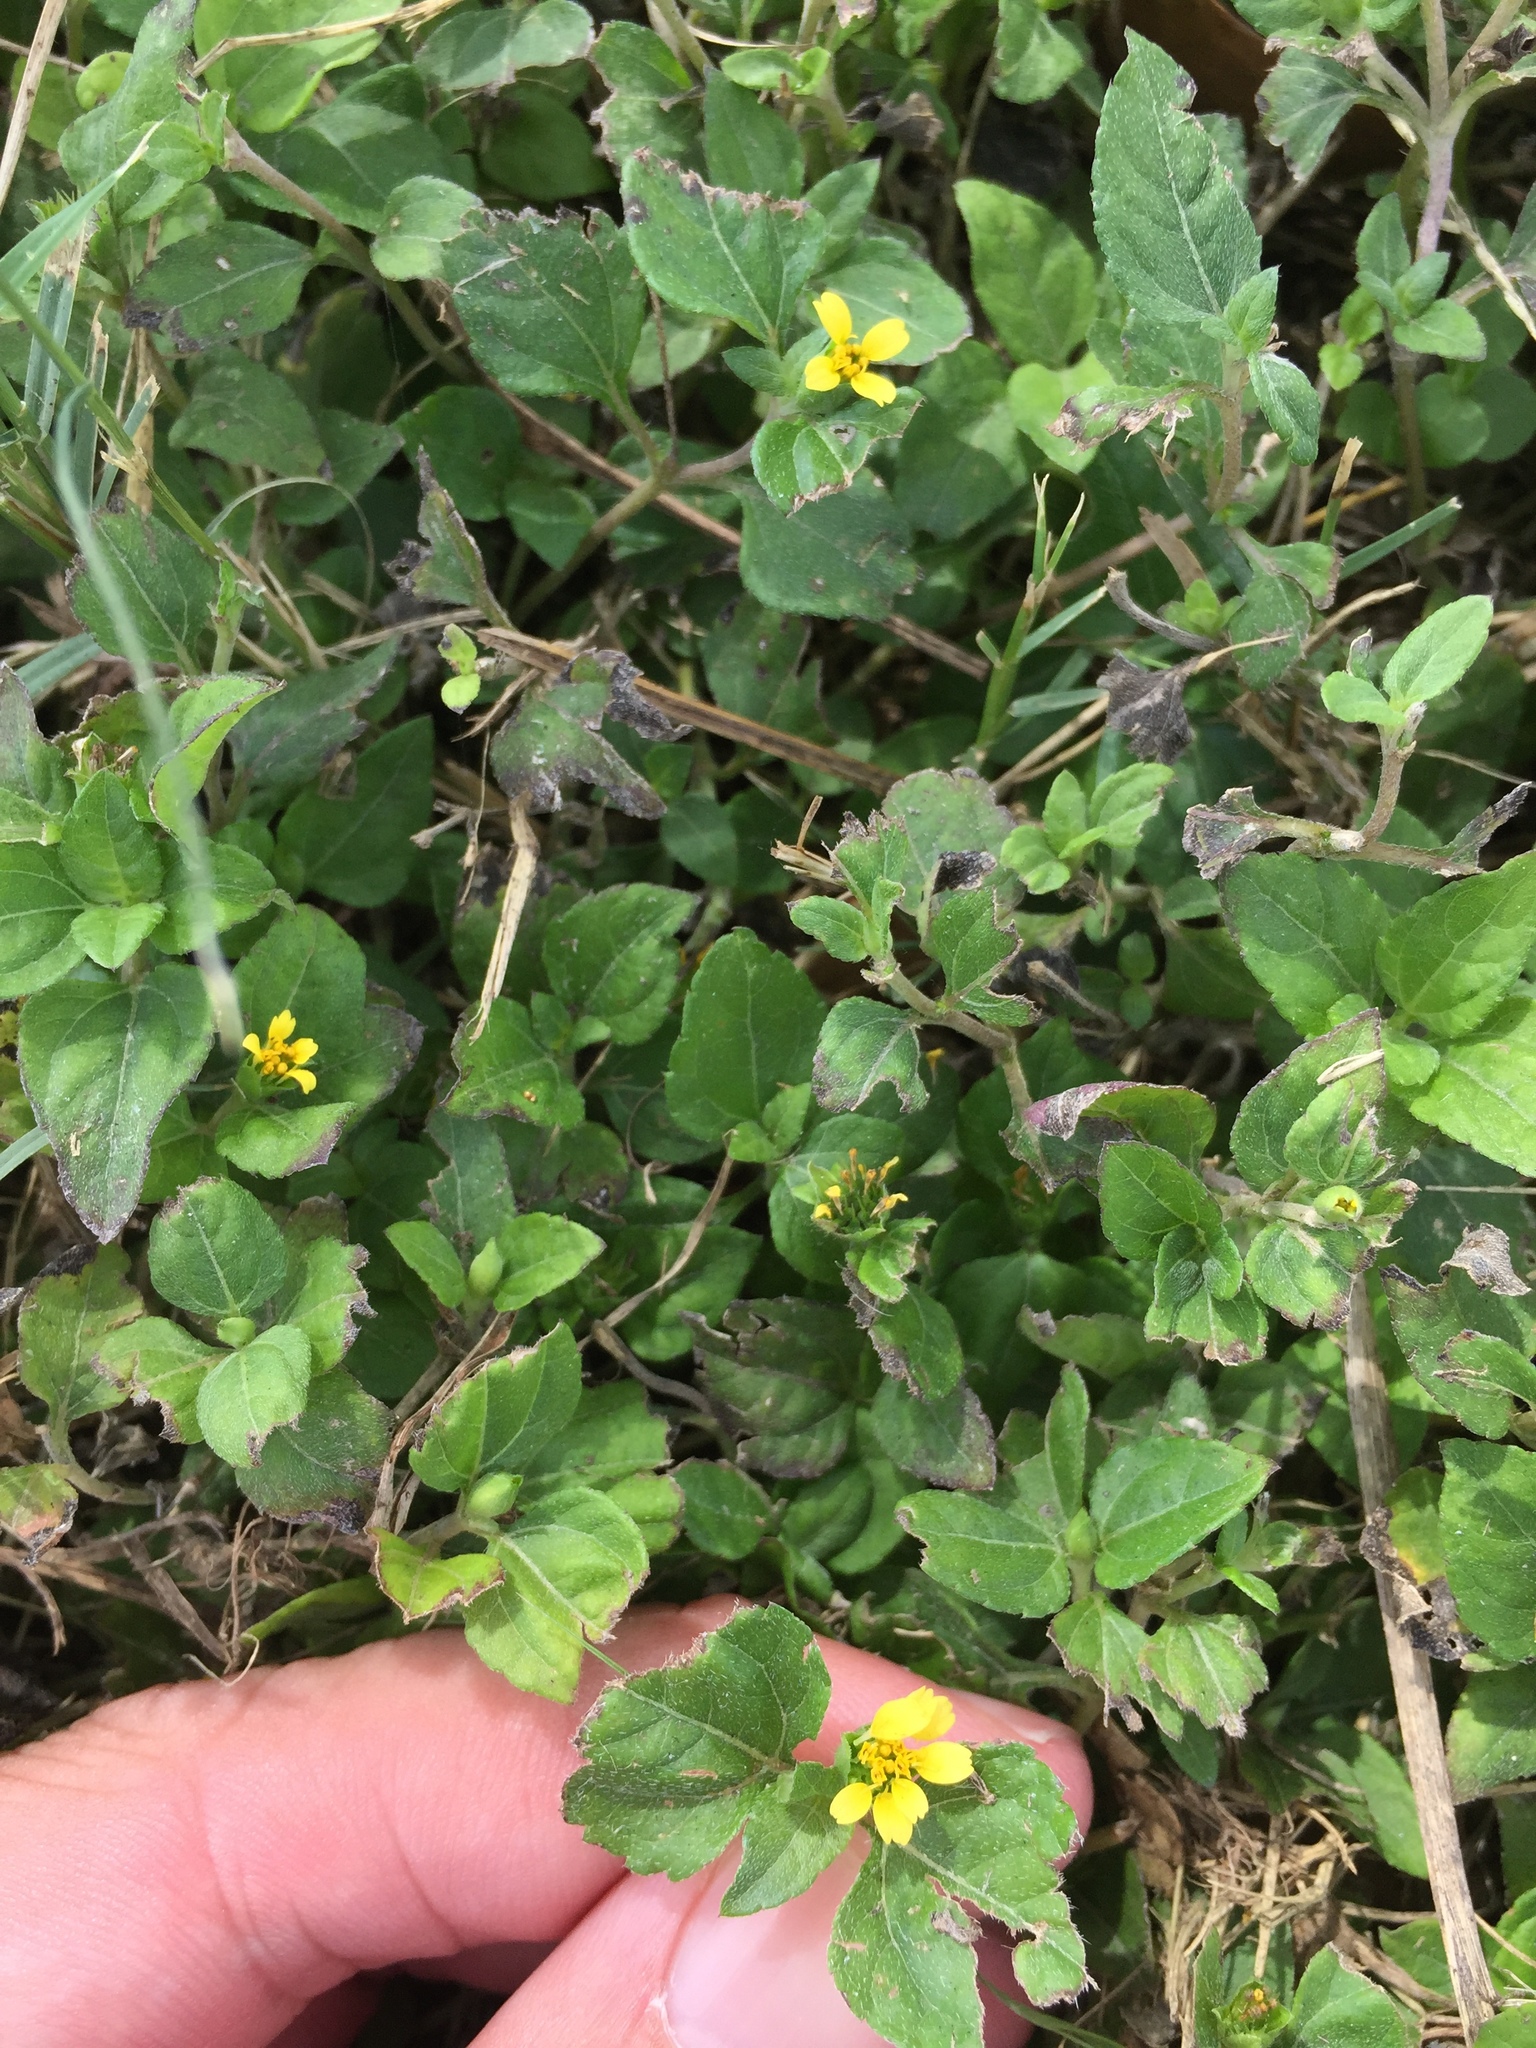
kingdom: Plantae
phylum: Tracheophyta
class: Magnoliopsida
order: Asterales
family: Asteraceae
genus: Calyptocarpus
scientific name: Calyptocarpus vialis
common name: Straggler daisy
